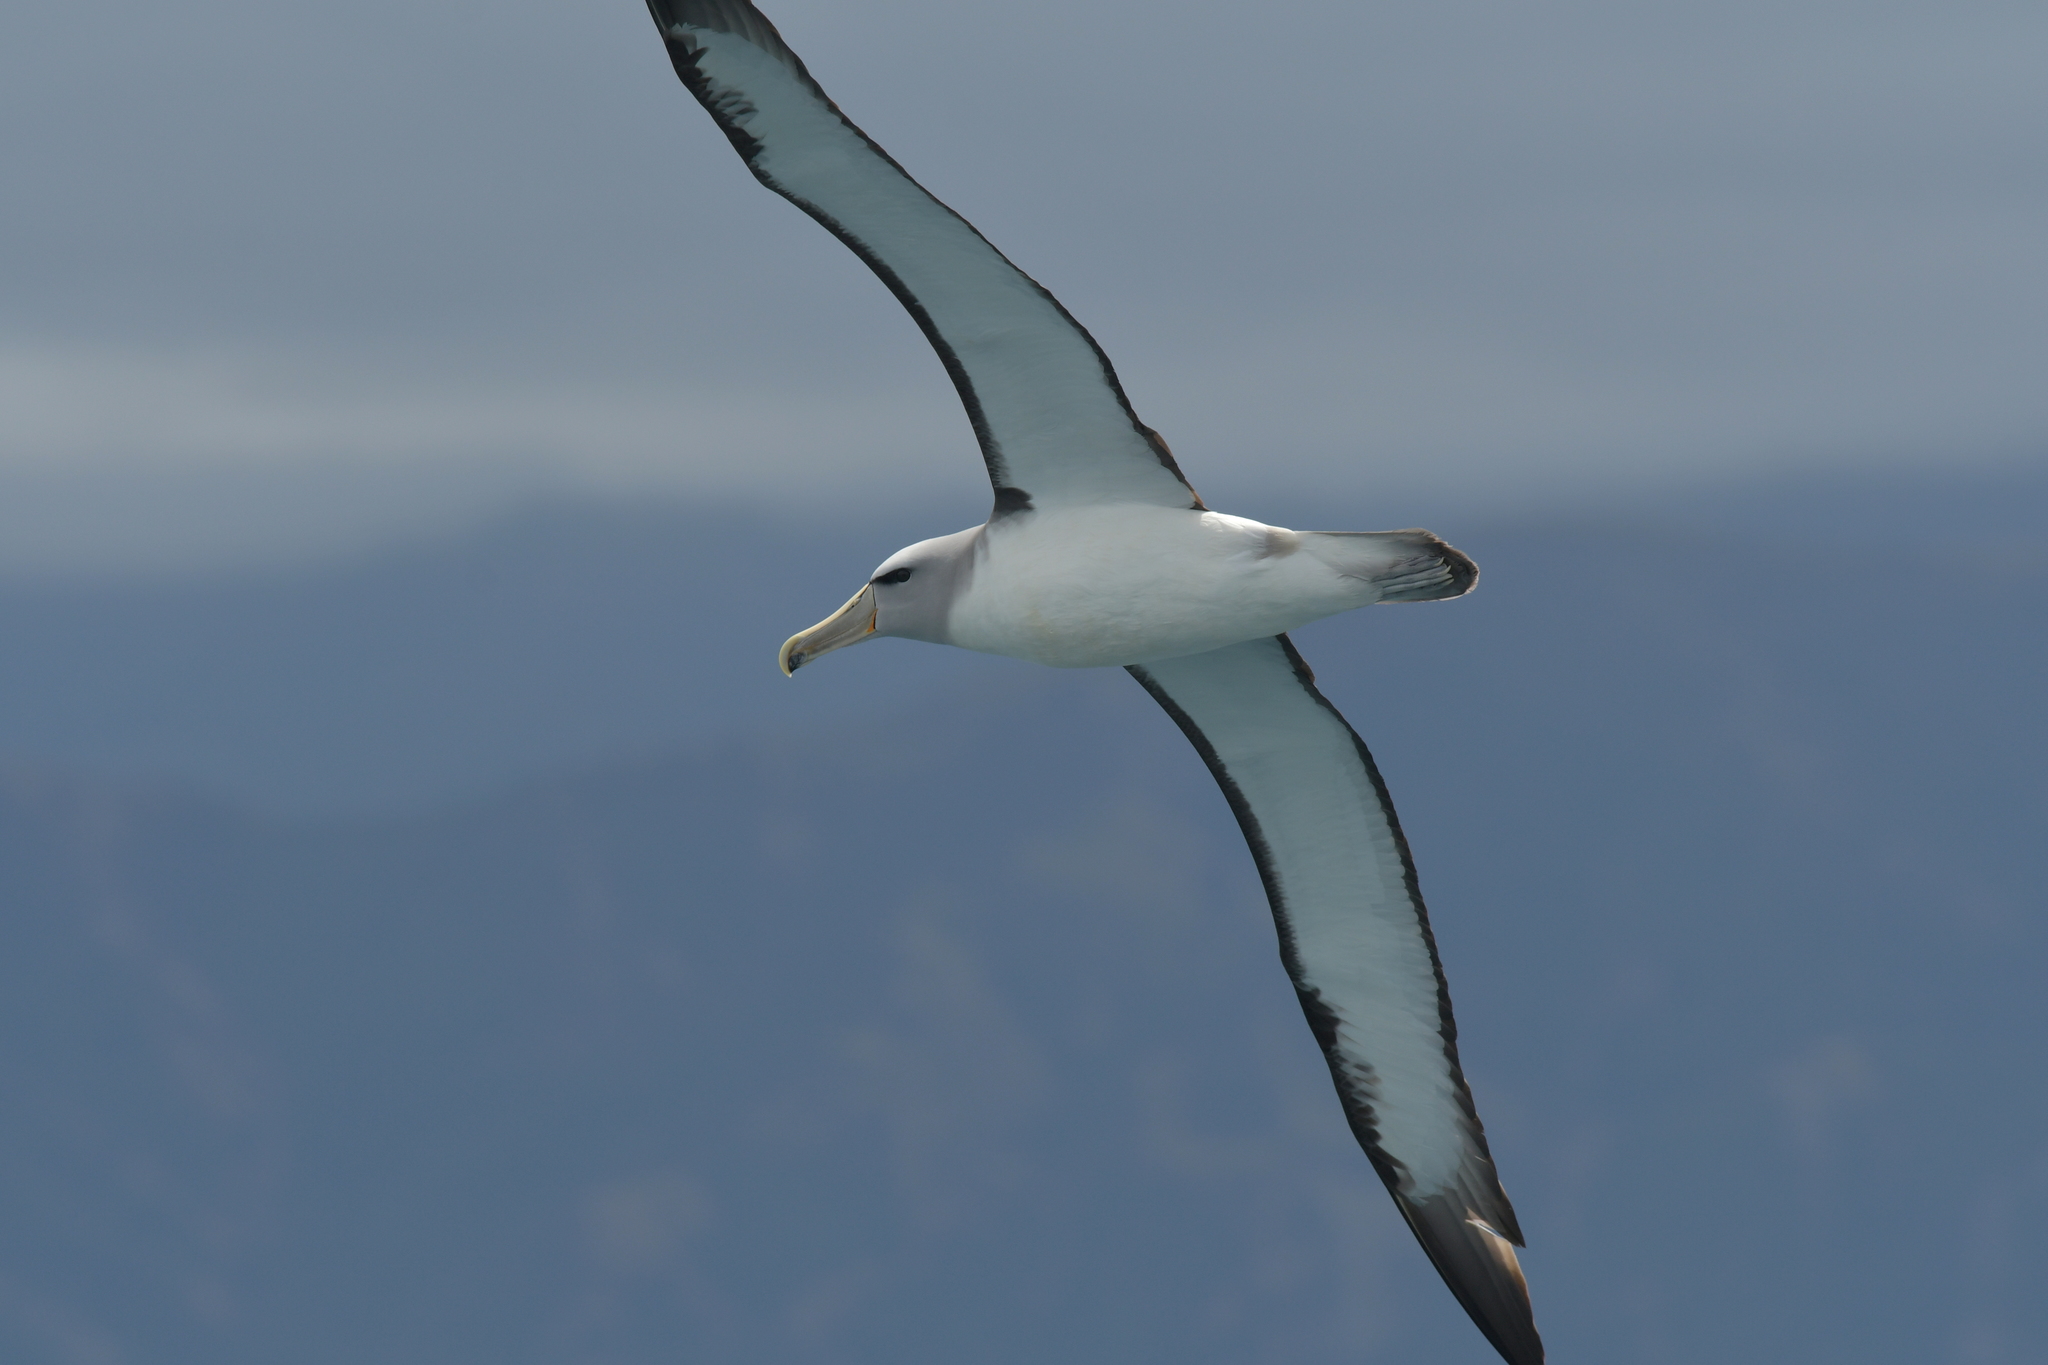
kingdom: Animalia
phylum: Chordata
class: Aves
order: Procellariiformes
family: Diomedeidae
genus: Thalassarche
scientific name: Thalassarche salvini
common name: Salvin's albatross
